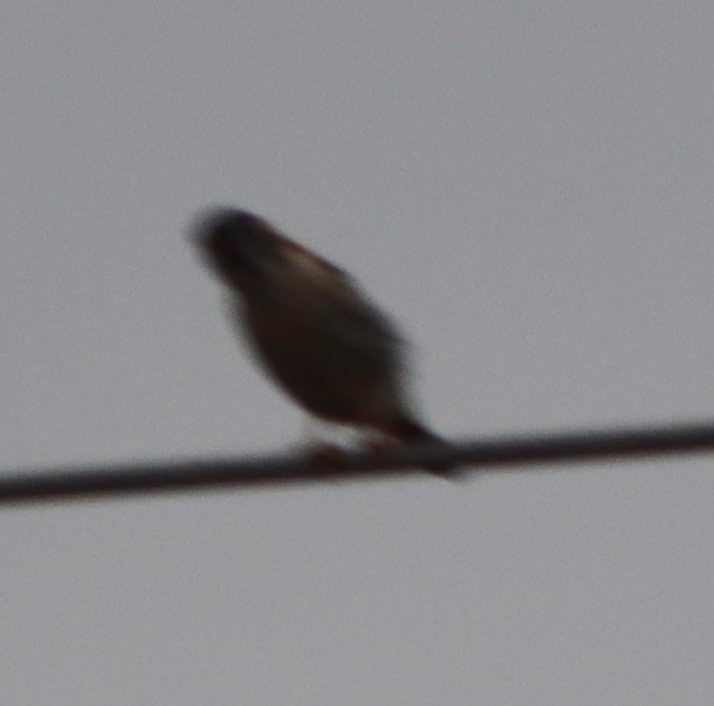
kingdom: Animalia
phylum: Chordata
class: Aves
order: Falconiformes
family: Falconidae
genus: Falco
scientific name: Falco sparverius
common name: American kestrel
